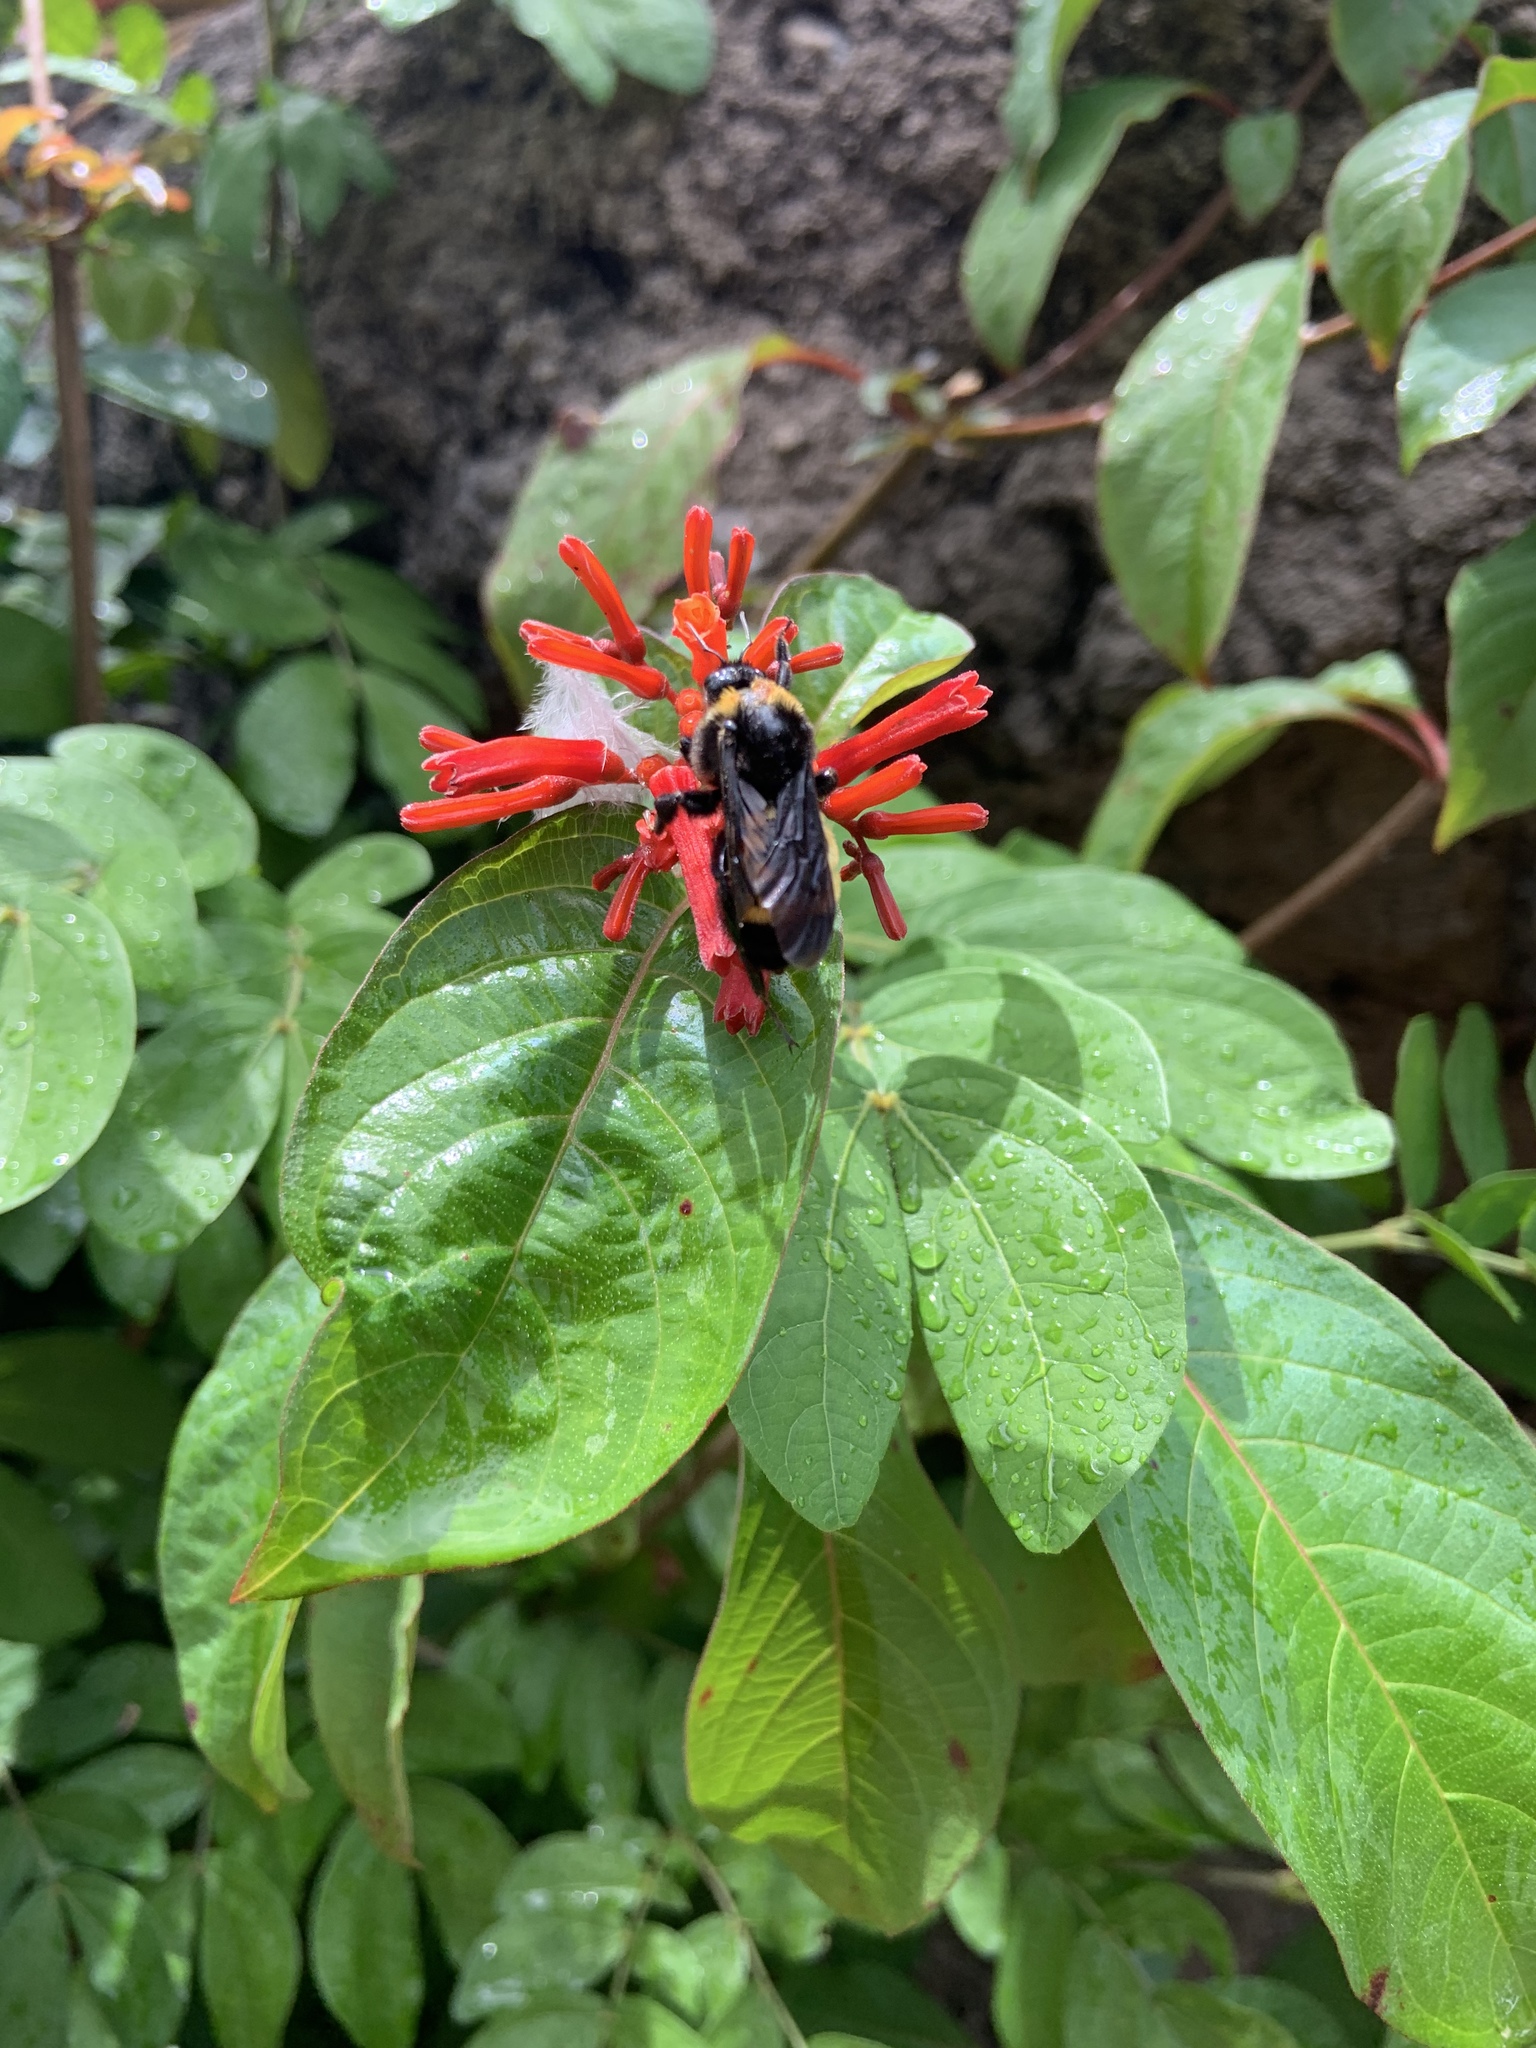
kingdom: Animalia
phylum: Arthropoda
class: Insecta
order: Hymenoptera
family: Apidae
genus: Bombus
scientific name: Bombus pensylvanicus
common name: Bumble bee
